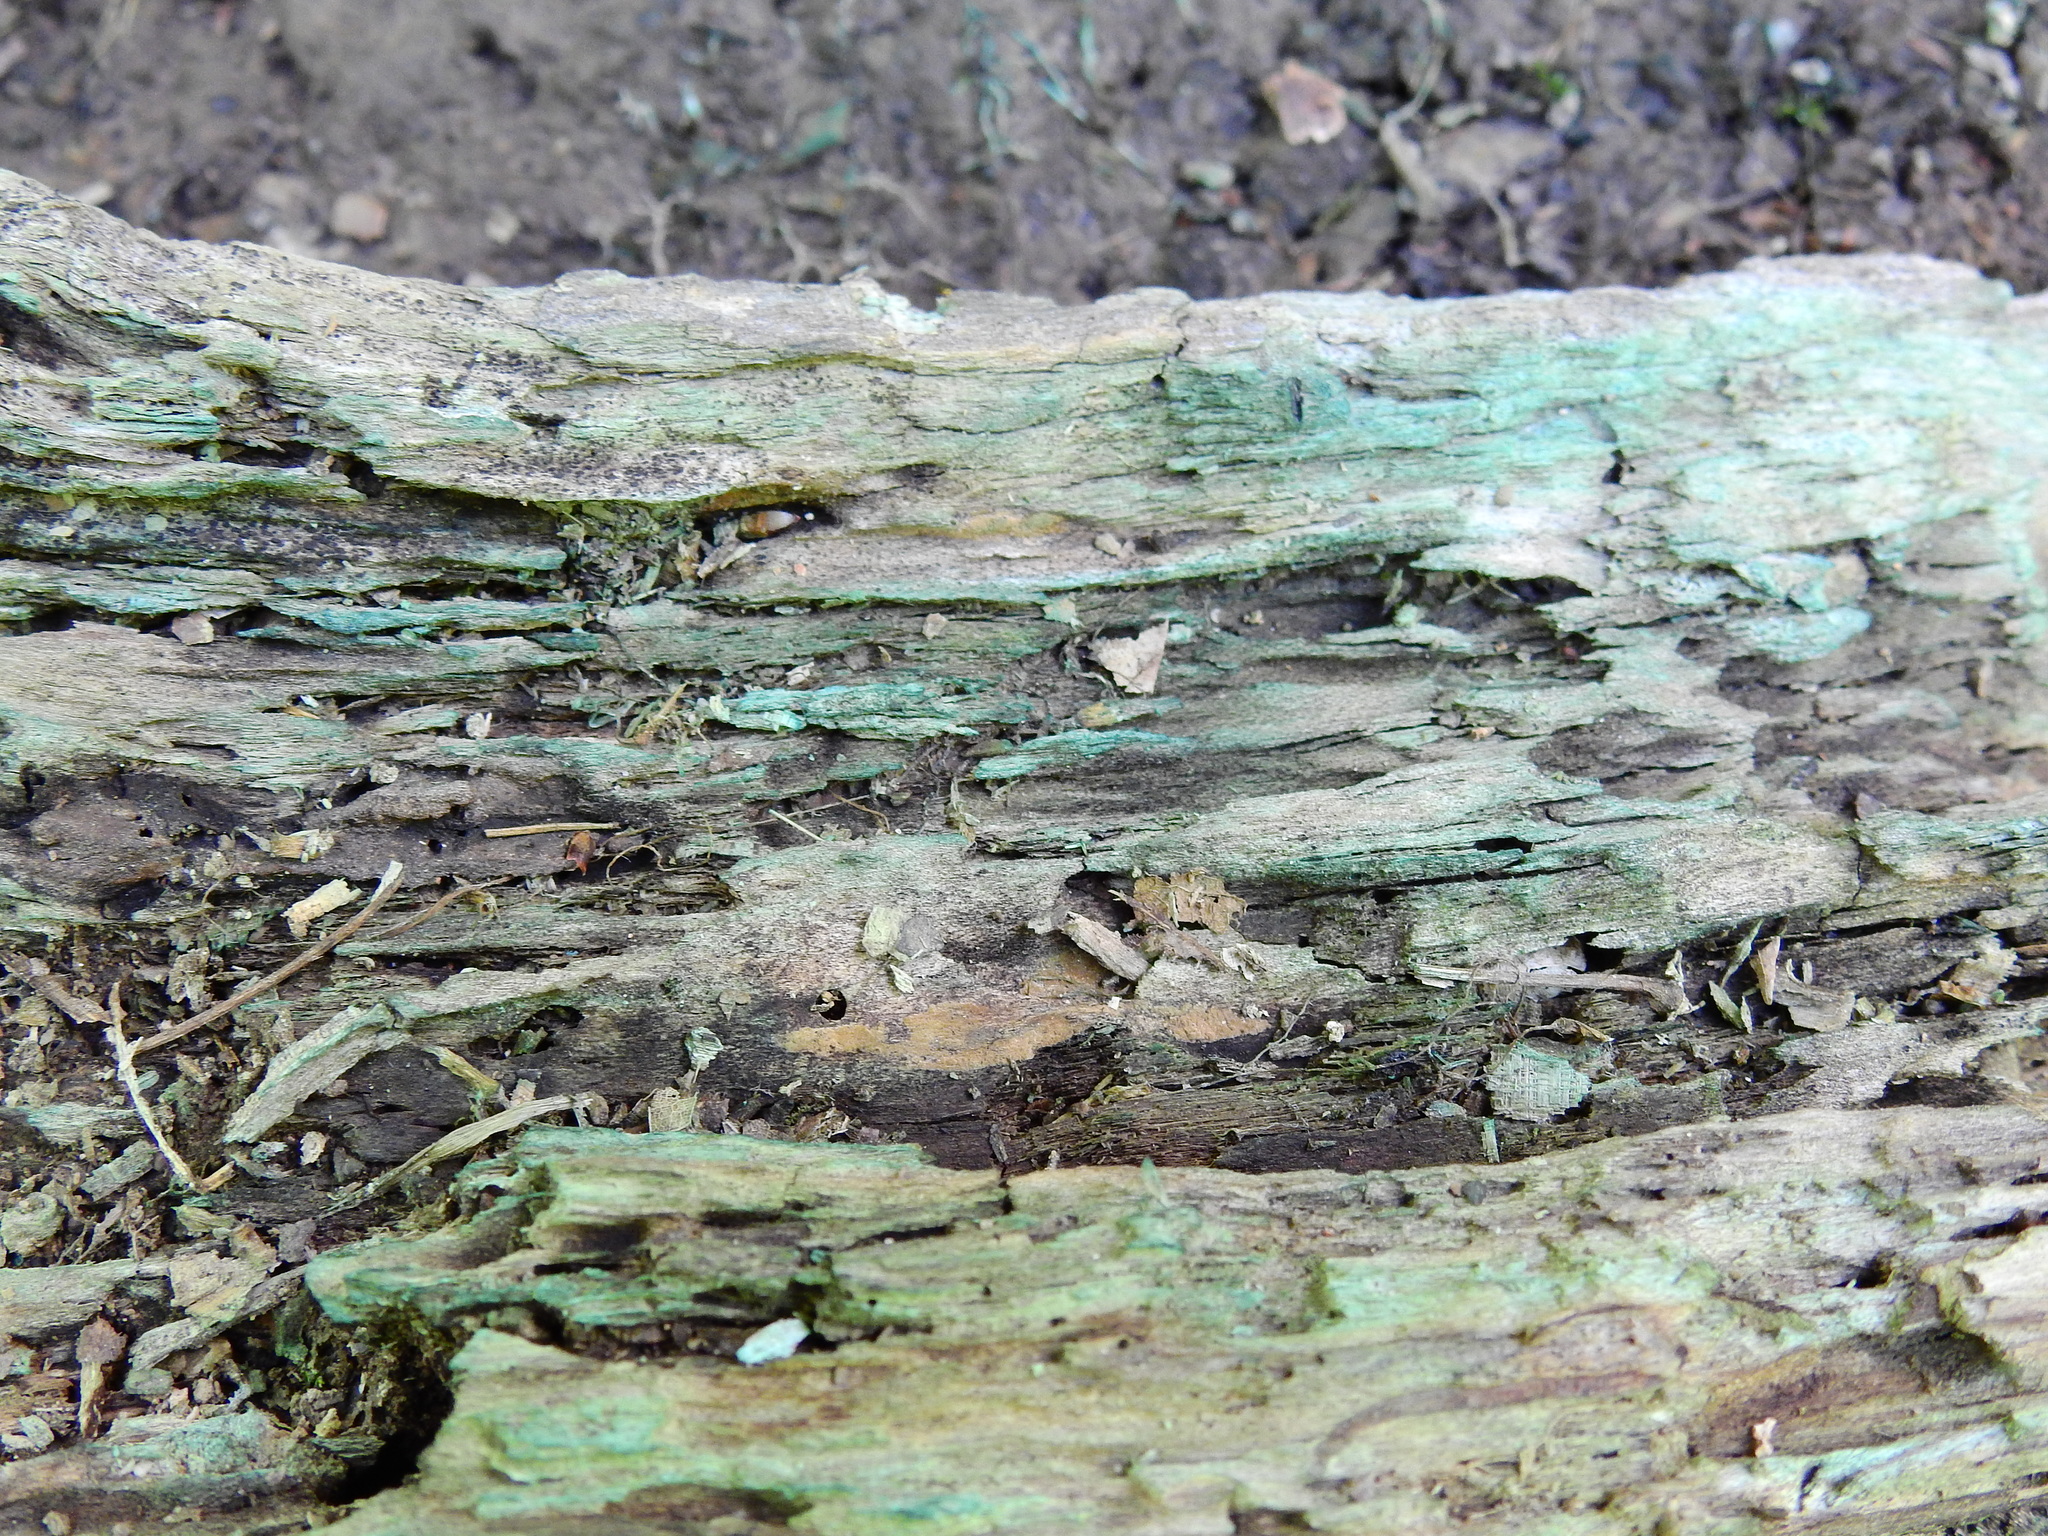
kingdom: Fungi
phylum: Ascomycota
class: Leotiomycetes
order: Helotiales
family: Chlorociboriaceae
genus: Chlorociboria
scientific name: Chlorociboria
